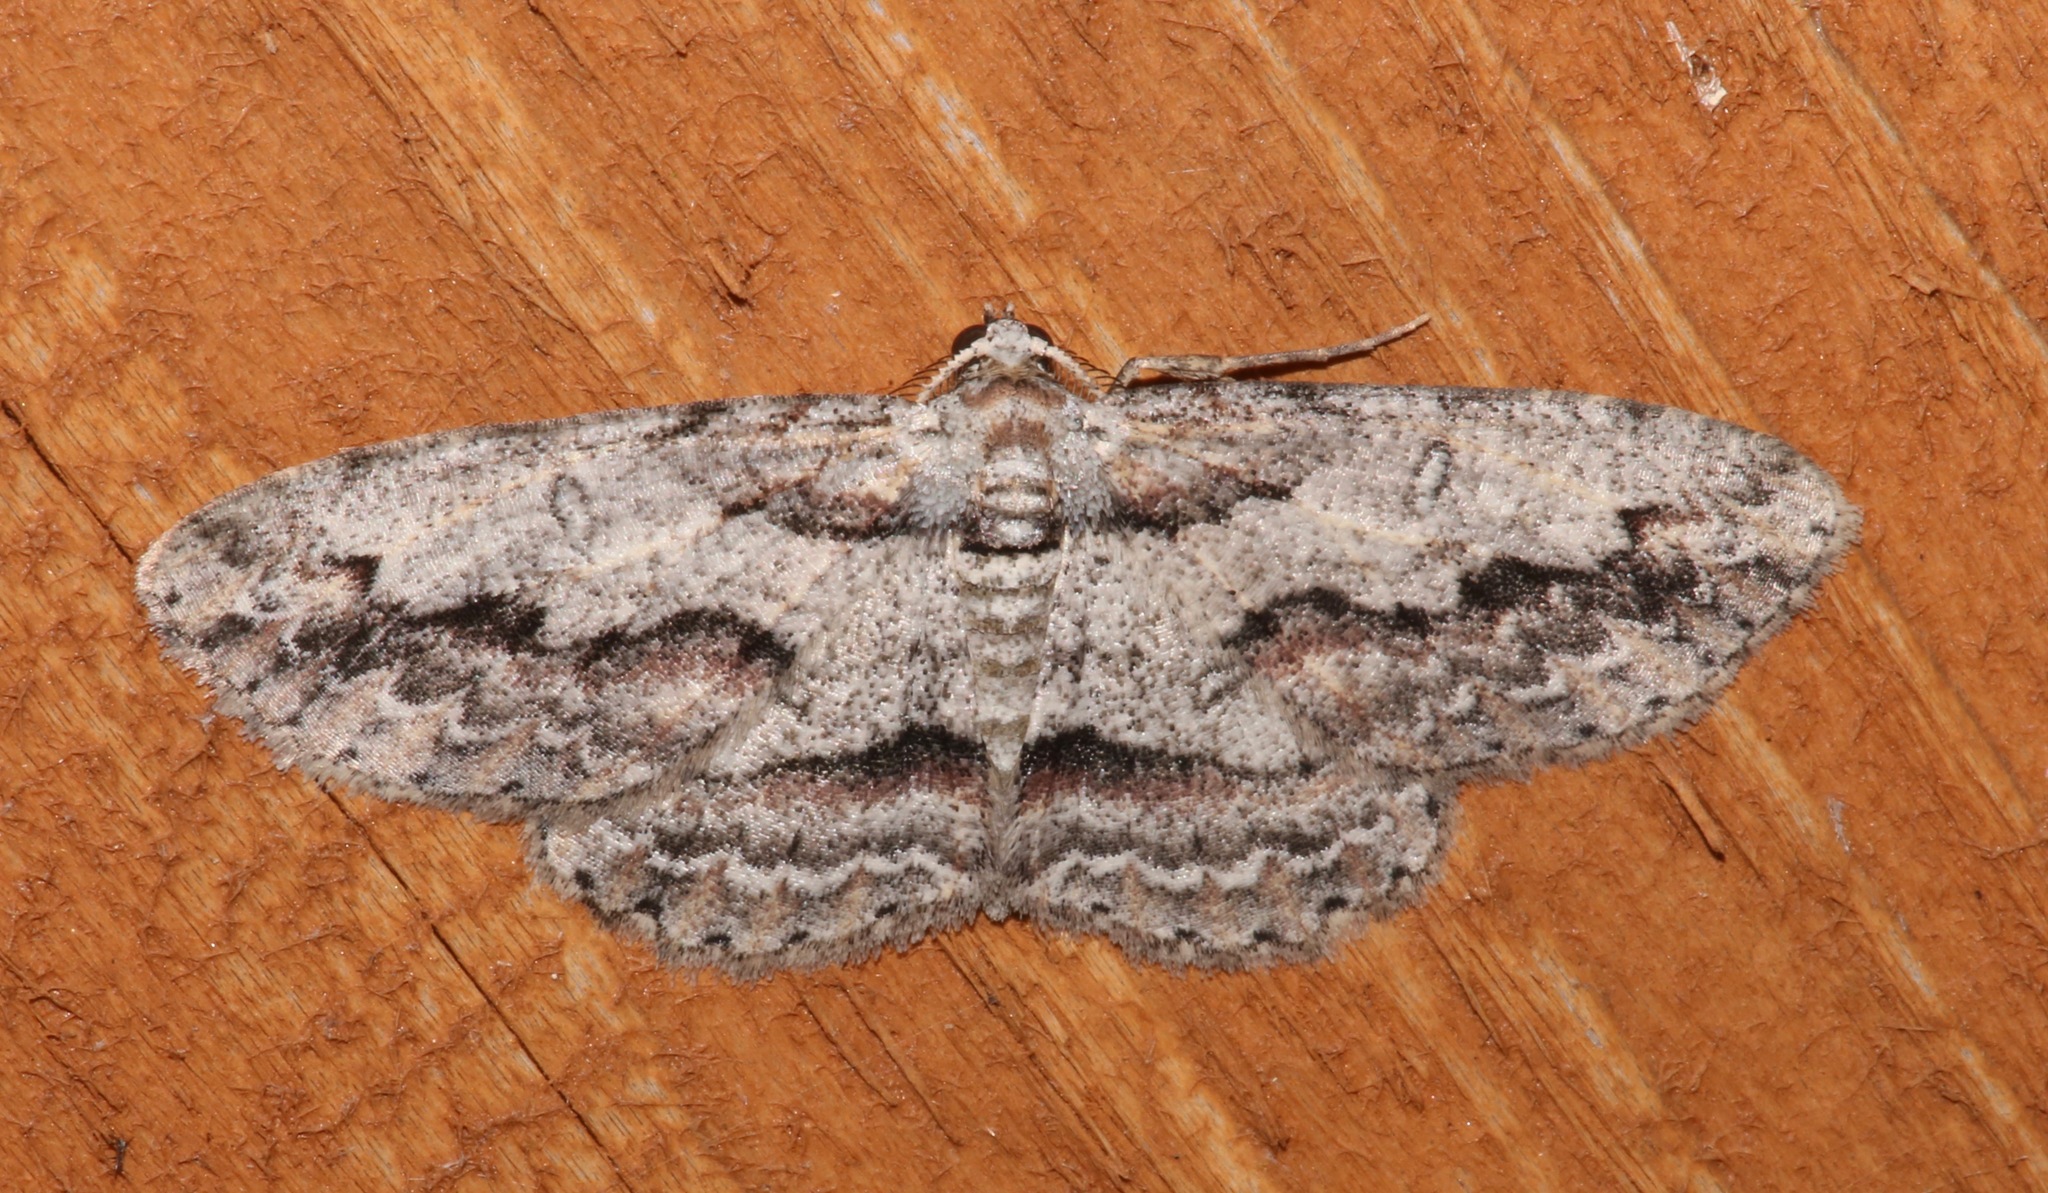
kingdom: Animalia
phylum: Arthropoda
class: Insecta
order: Lepidoptera
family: Geometridae
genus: Iridopsis
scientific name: Iridopsis pergracilis
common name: Cypress looper
